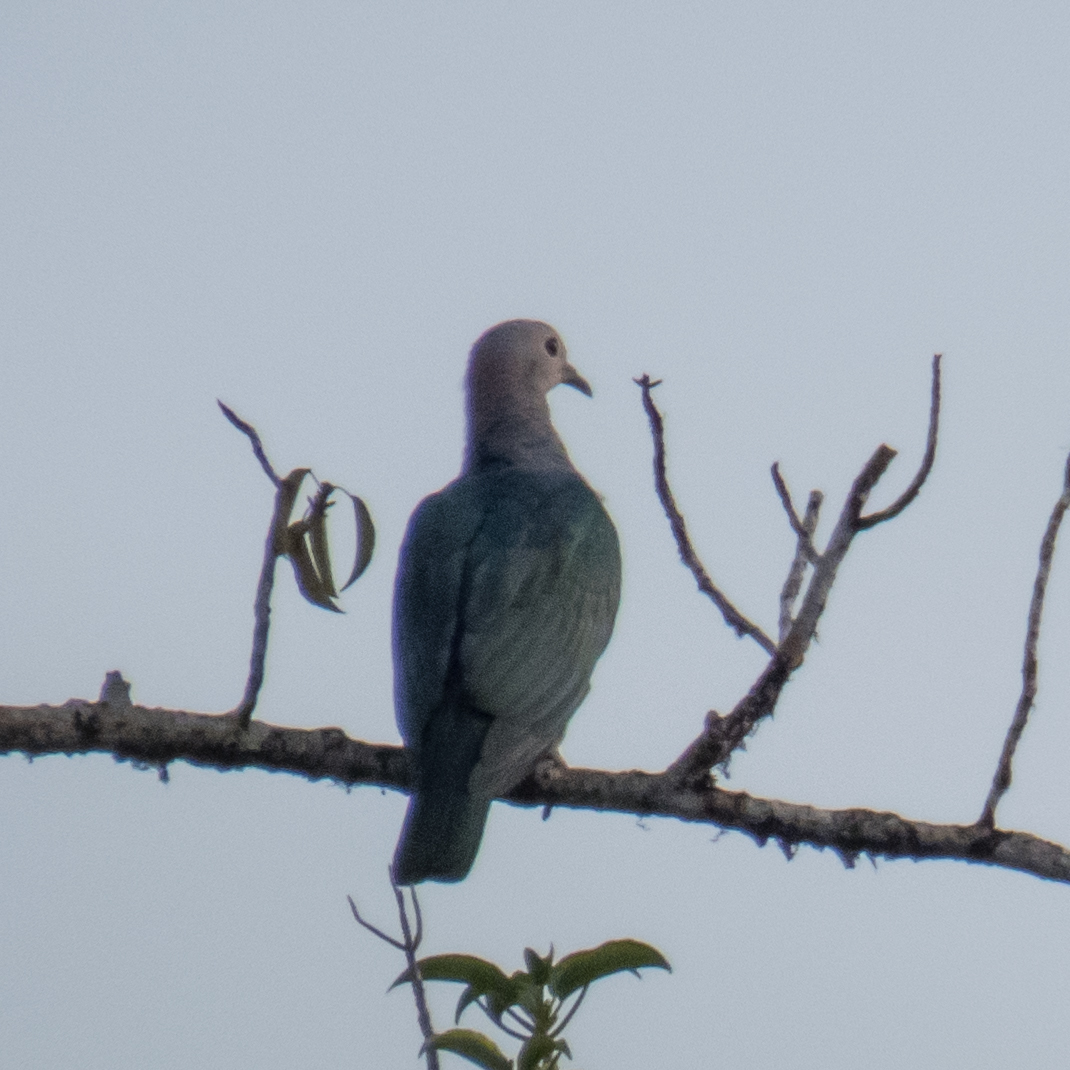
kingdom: Animalia
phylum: Chordata
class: Aves
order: Columbiformes
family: Columbidae
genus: Ducula
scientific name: Ducula aenea
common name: Green imperial pigeon
